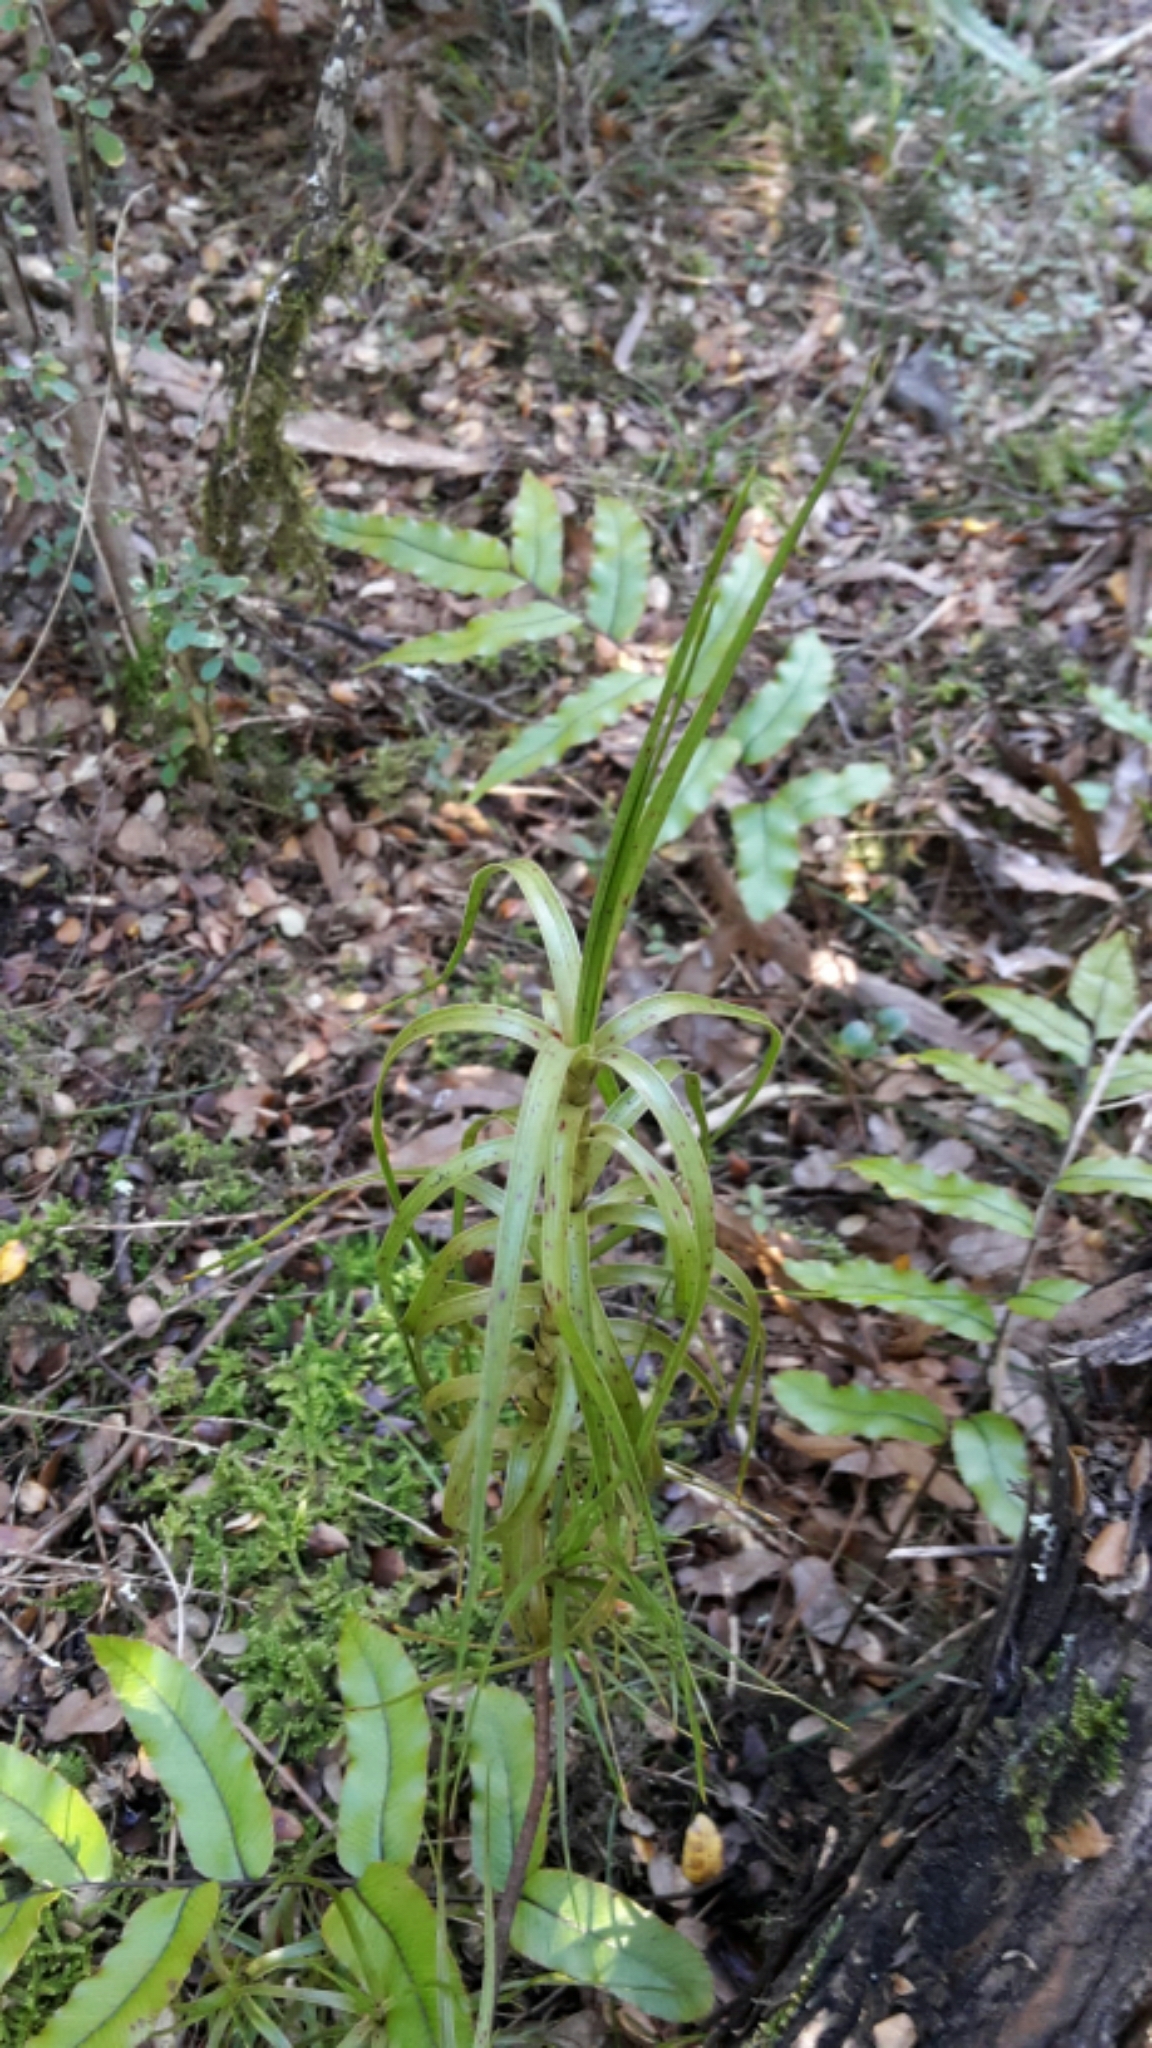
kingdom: Plantae
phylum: Tracheophyta
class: Magnoliopsida
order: Ericales
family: Ericaceae
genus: Dracophyllum
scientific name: Dracophyllum longifolium
